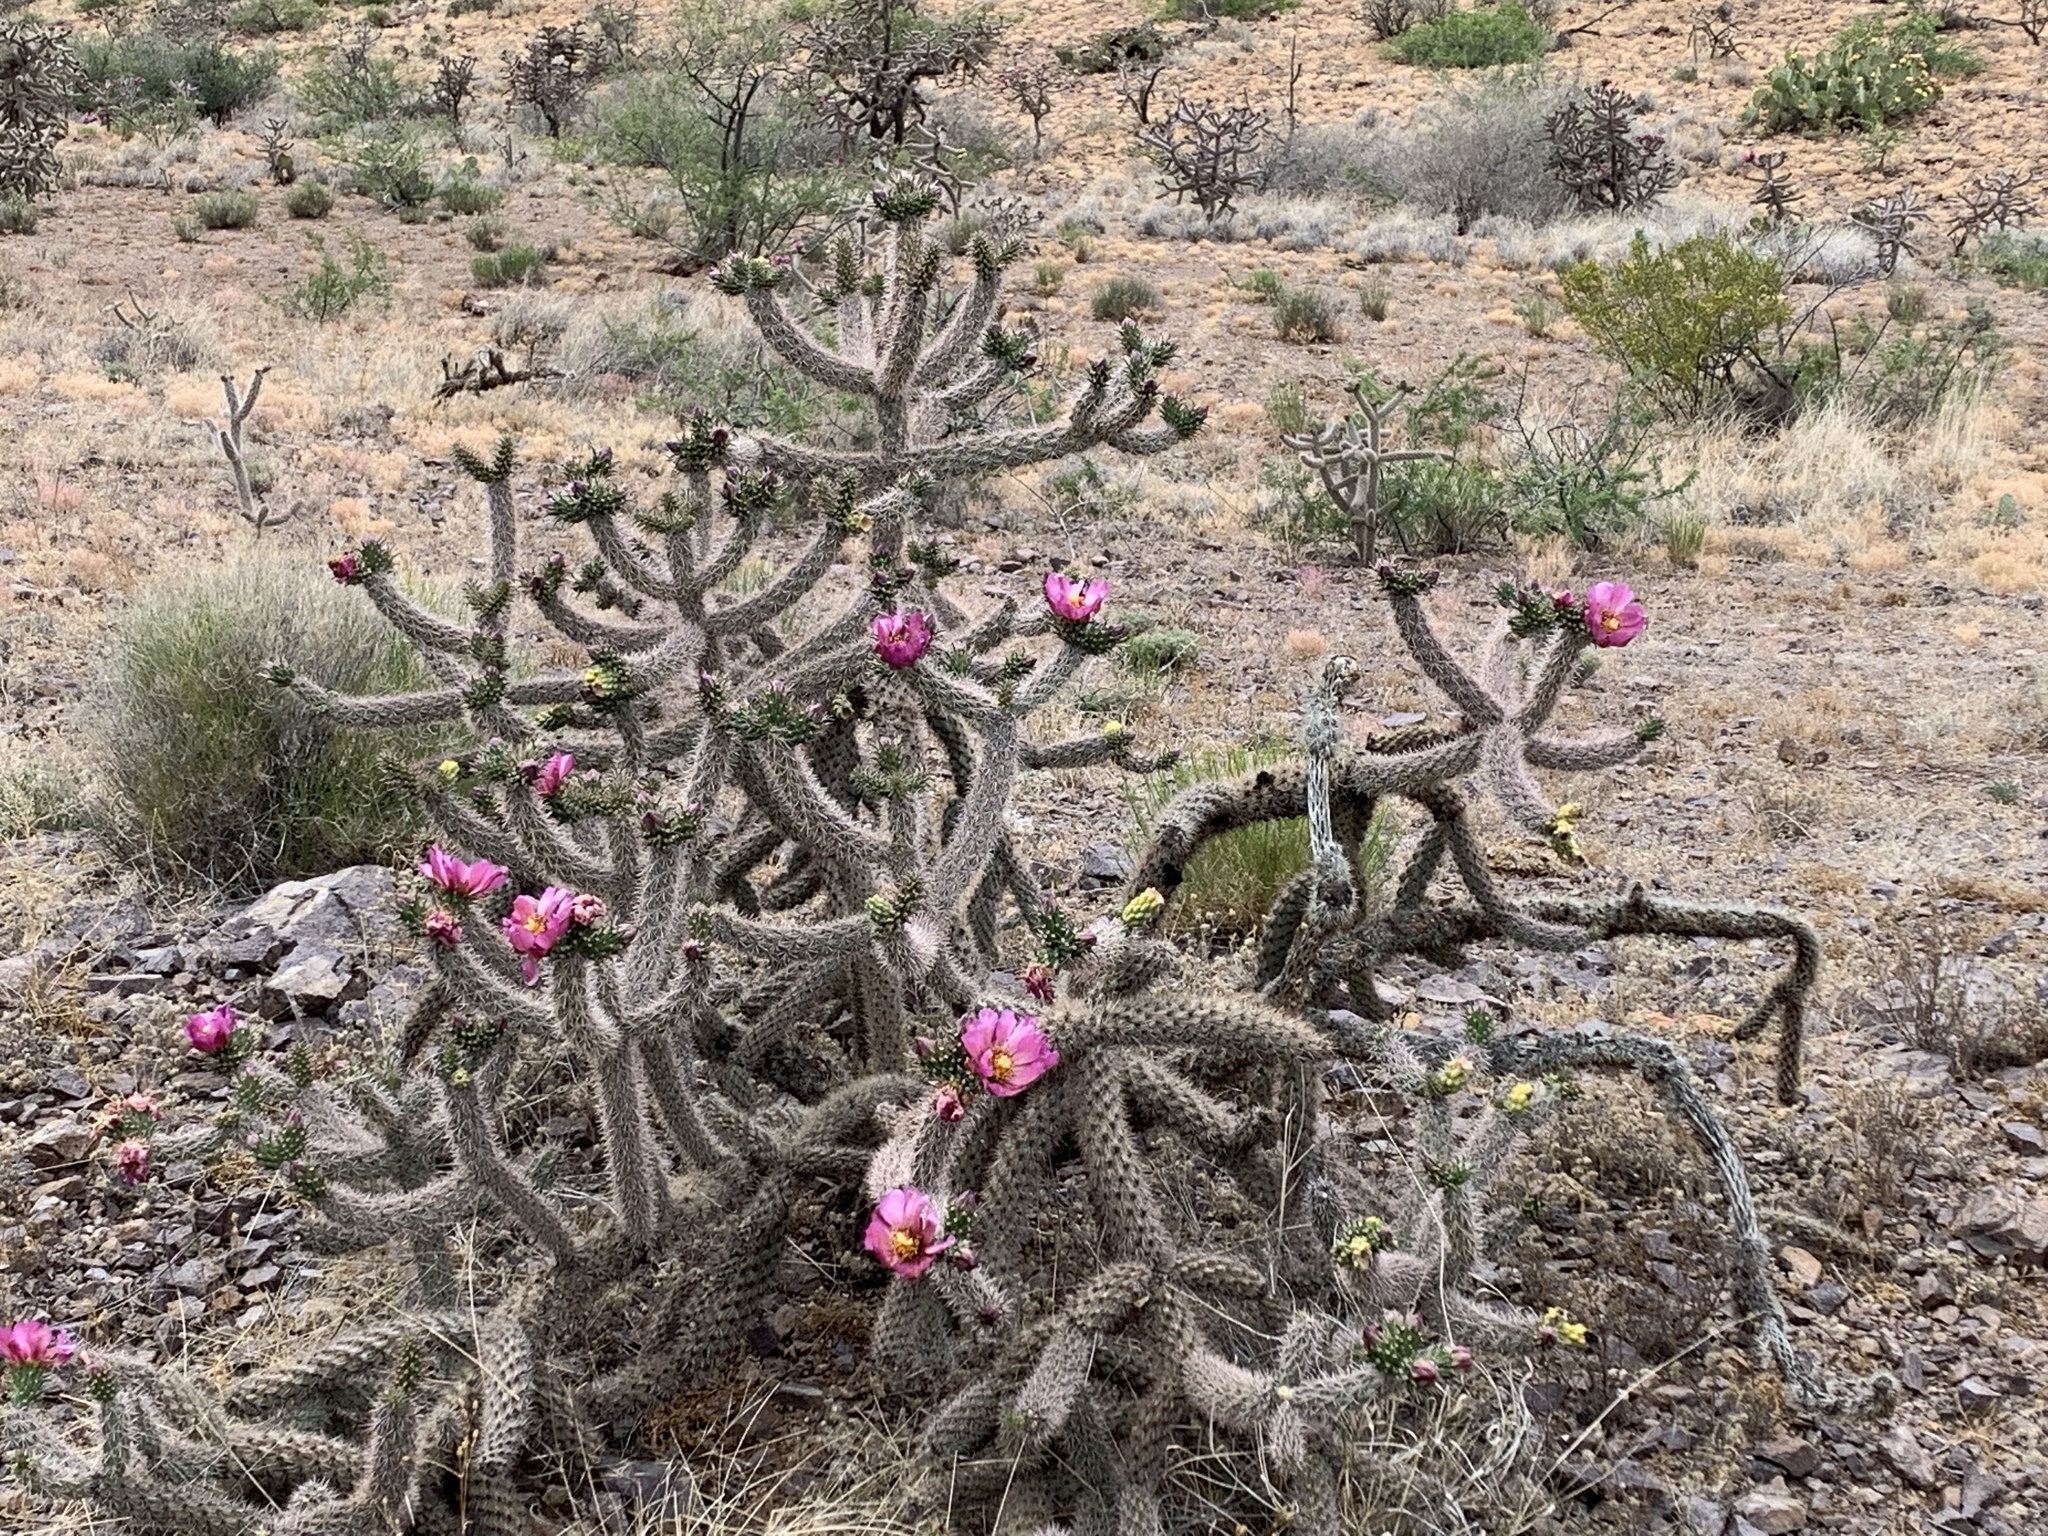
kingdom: Plantae
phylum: Tracheophyta
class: Magnoliopsida
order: Caryophyllales
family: Cactaceae
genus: Cylindropuntia
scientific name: Cylindropuntia imbricata
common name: Candelabrum cactus
